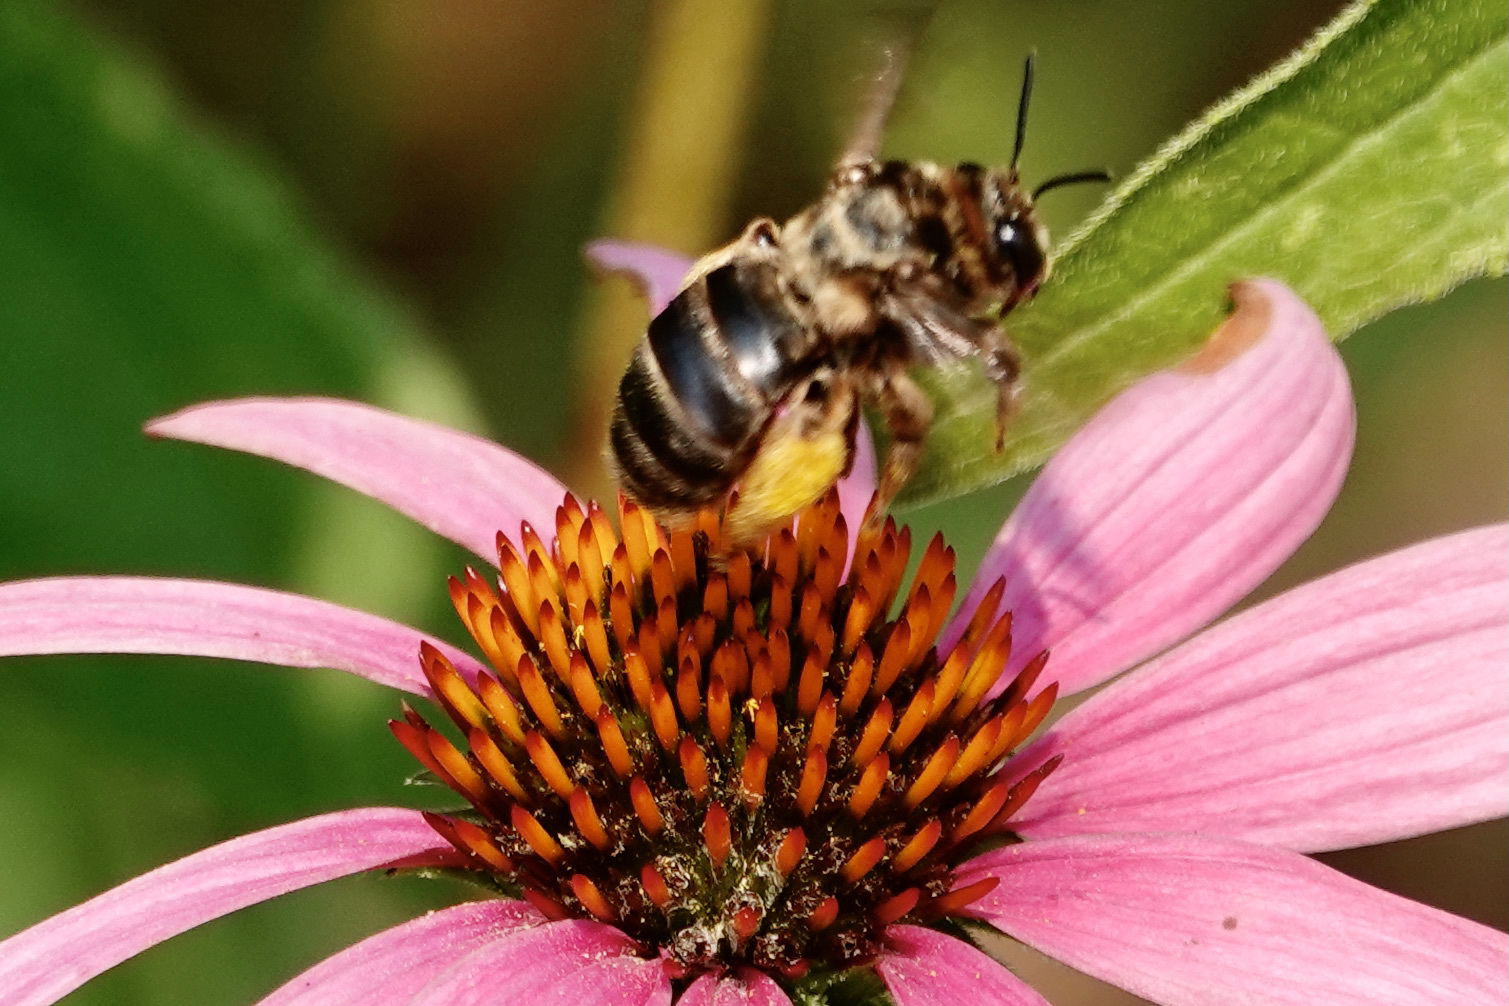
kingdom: Animalia
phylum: Arthropoda
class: Insecta
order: Hymenoptera
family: Apidae
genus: Svastra
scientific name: Svastra obliqua
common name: Oblique longhorn
